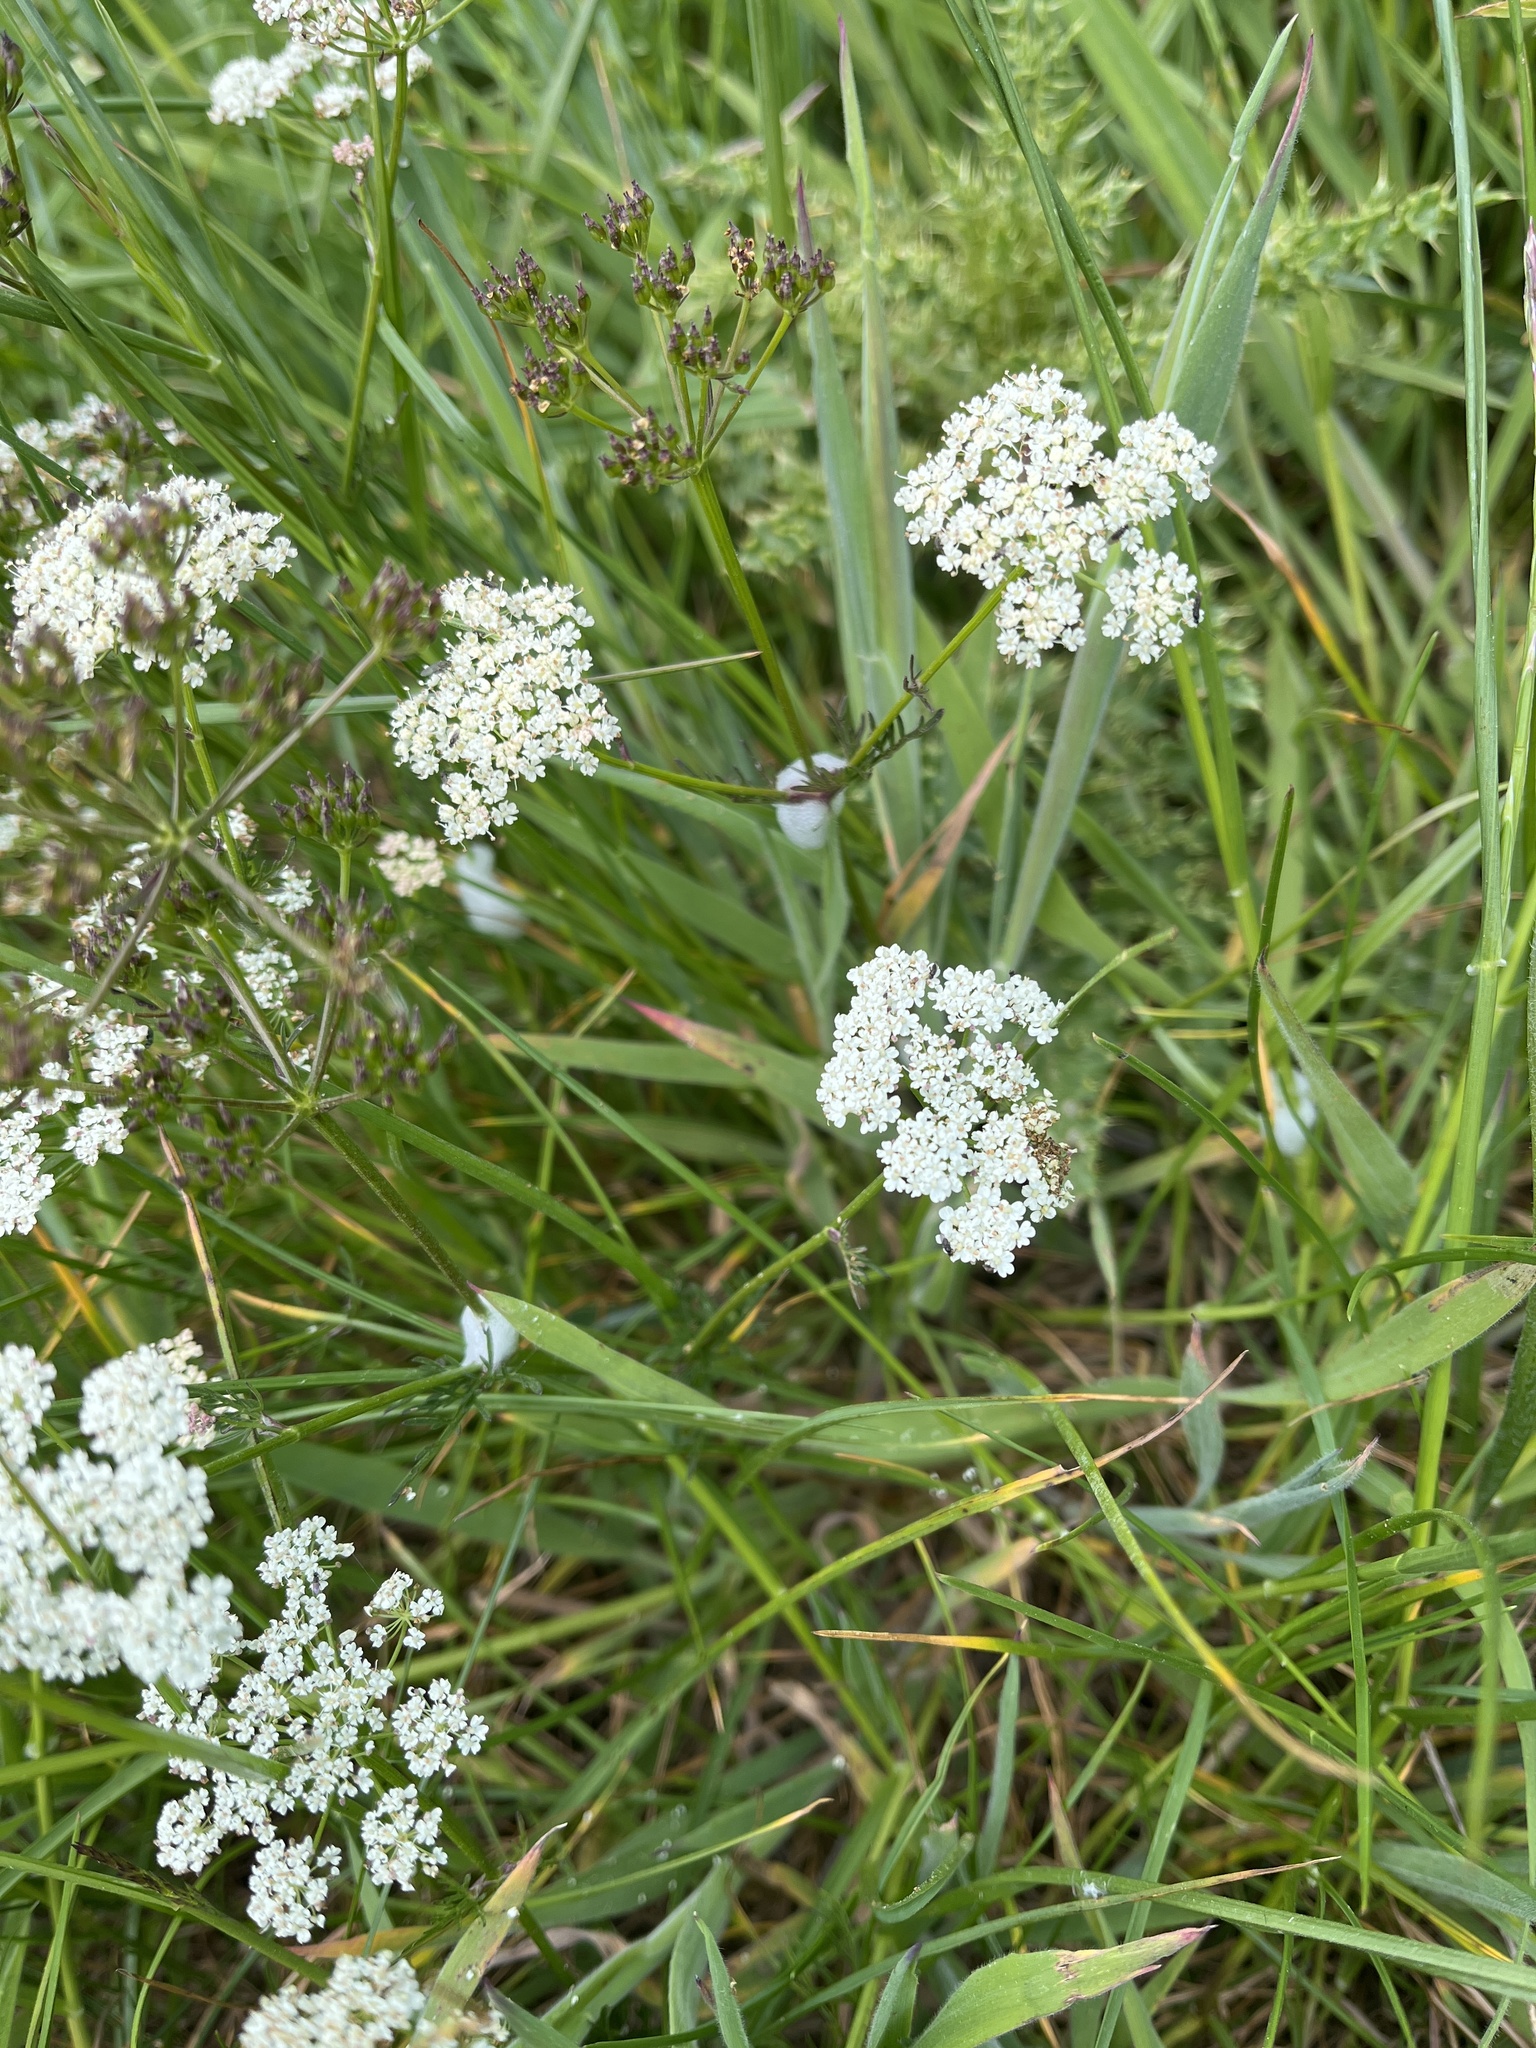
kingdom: Plantae
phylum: Tracheophyta
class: Magnoliopsida
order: Apiales
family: Apiaceae
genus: Conopodium
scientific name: Conopodium majus
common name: Pignut
